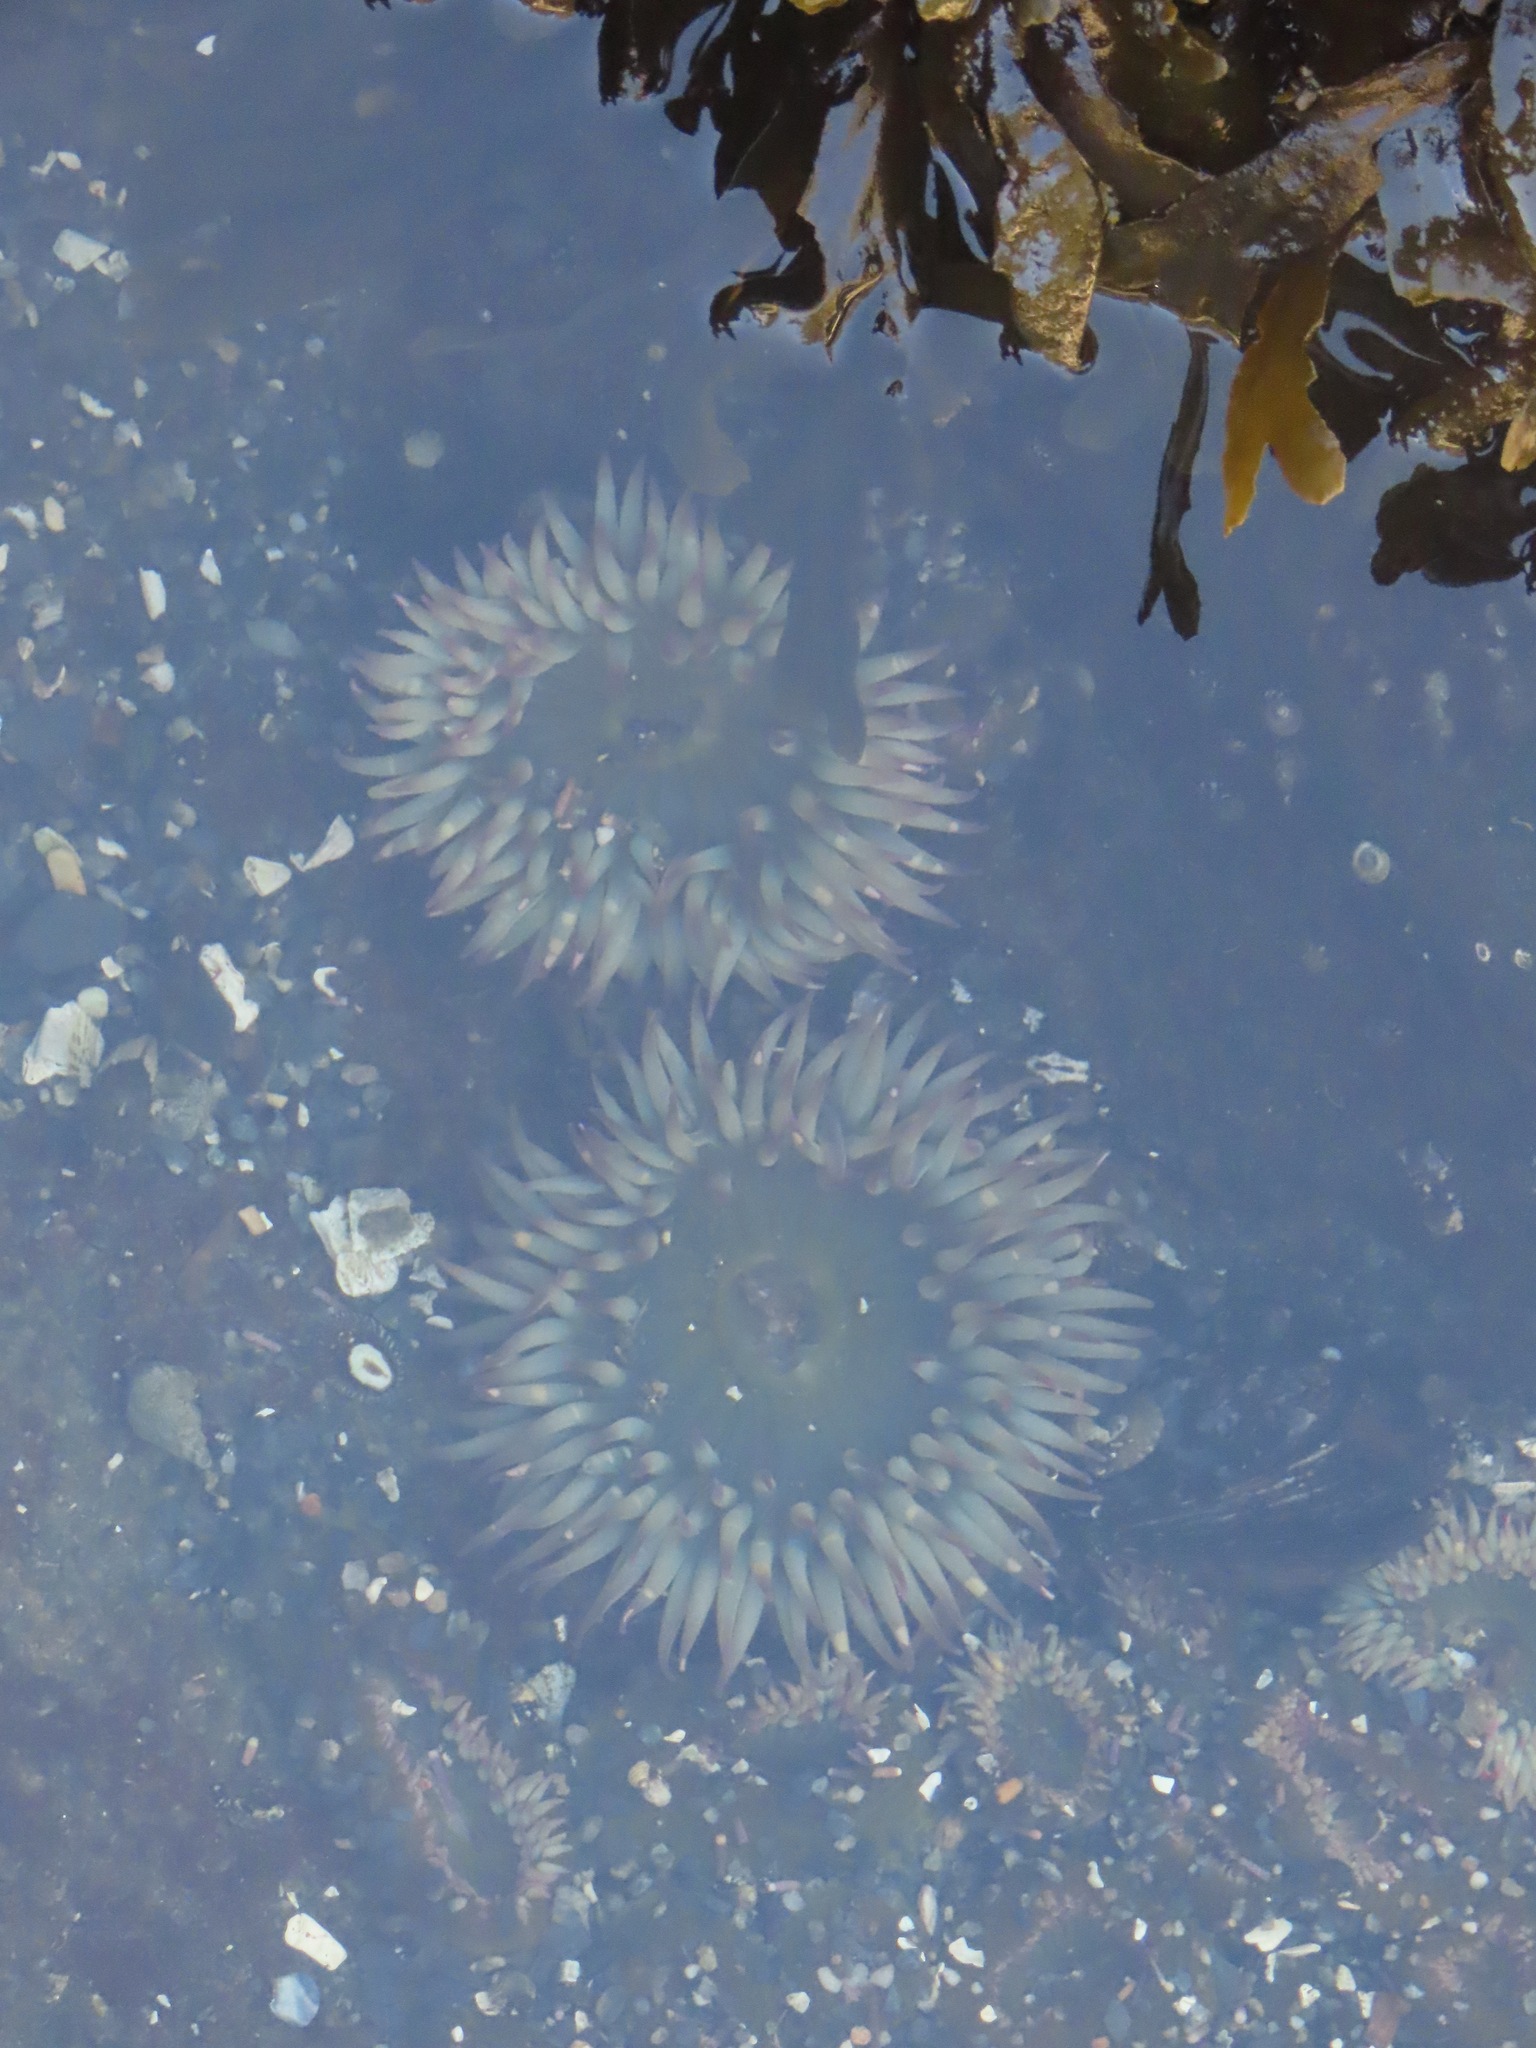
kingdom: Animalia
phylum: Cnidaria
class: Anthozoa
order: Actiniaria
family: Actiniidae
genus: Anthopleura
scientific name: Anthopleura elegantissima
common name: Clonal anemone
